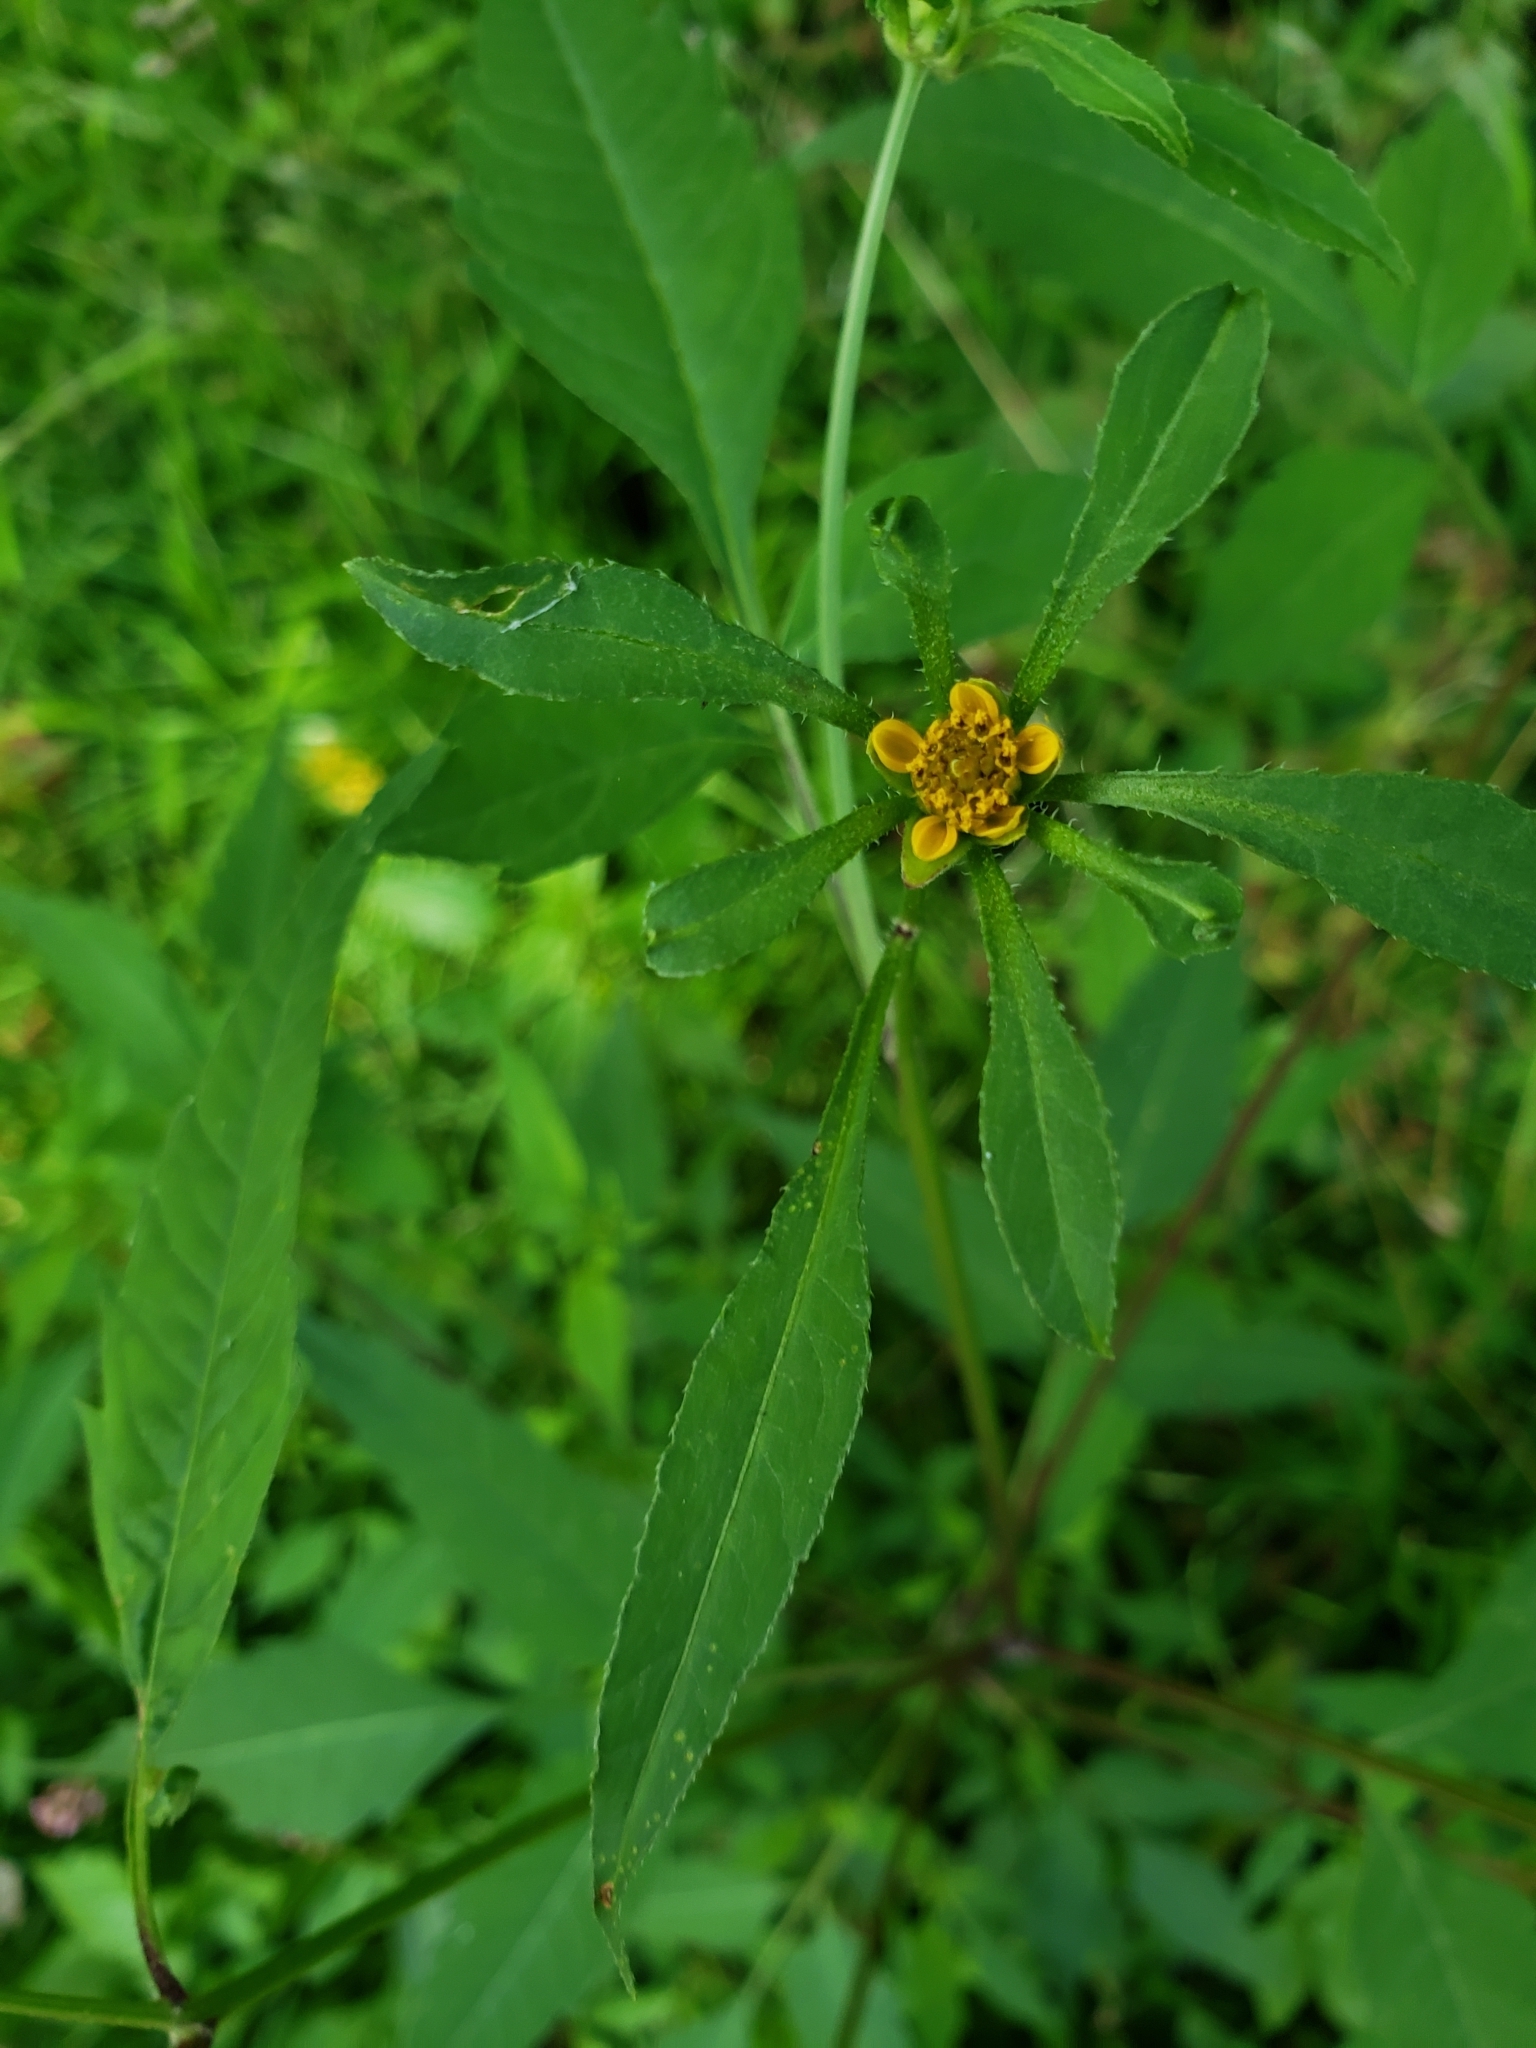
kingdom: Plantae
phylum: Tracheophyta
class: Magnoliopsida
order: Asterales
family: Asteraceae
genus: Bidens
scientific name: Bidens frondosa
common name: Beggarticks
